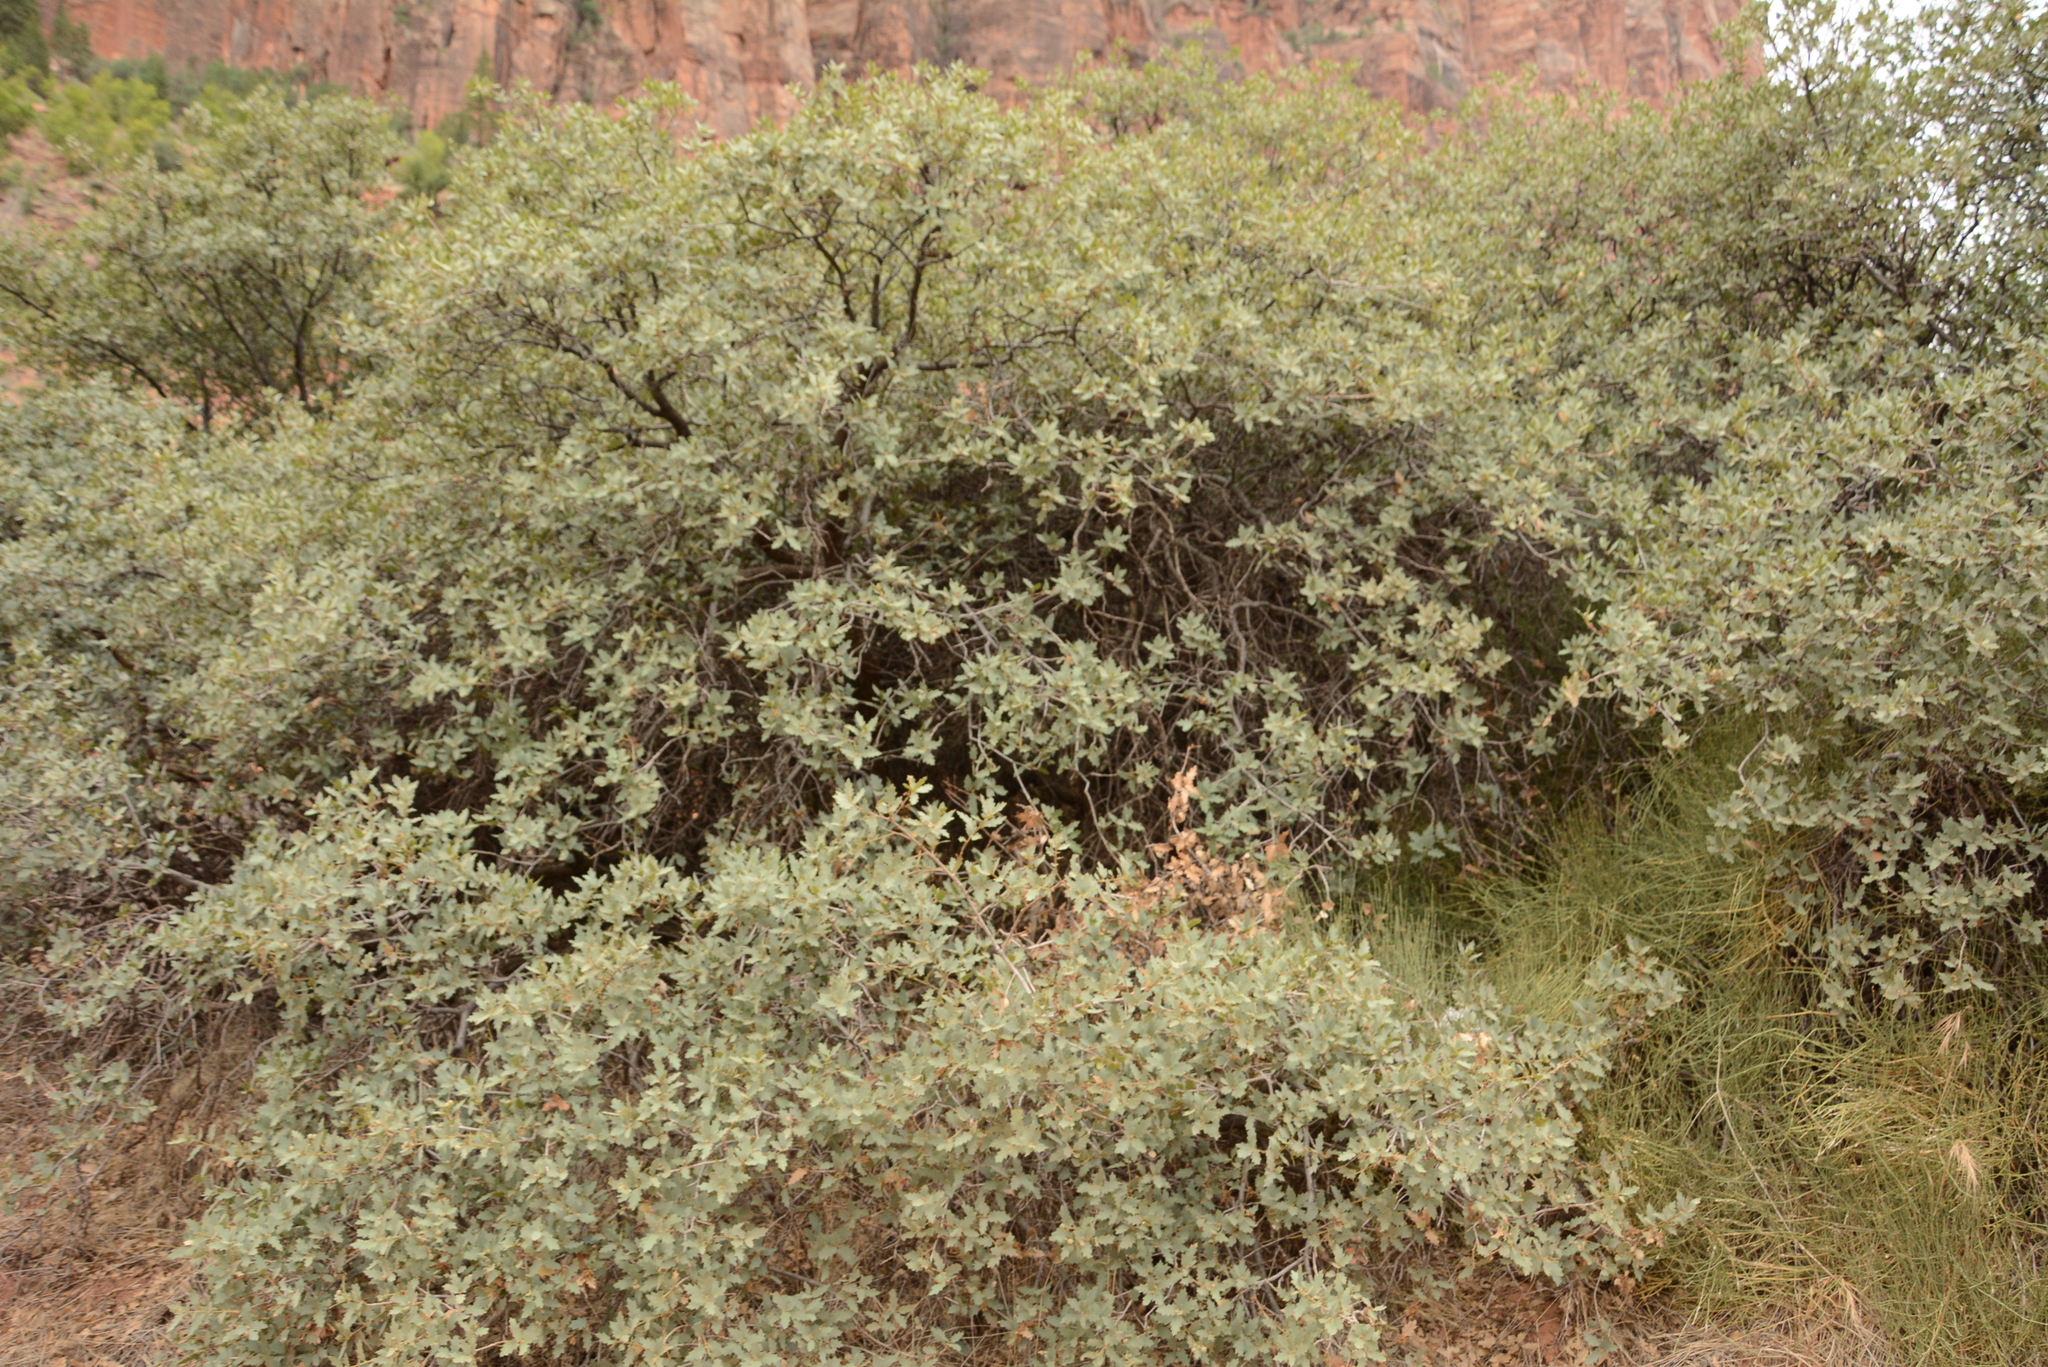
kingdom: Plantae
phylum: Tracheophyta
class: Magnoliopsida
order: Fagales
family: Fagaceae
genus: Quercus
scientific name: Quercus turbinella
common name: Sonoran scrub oak
